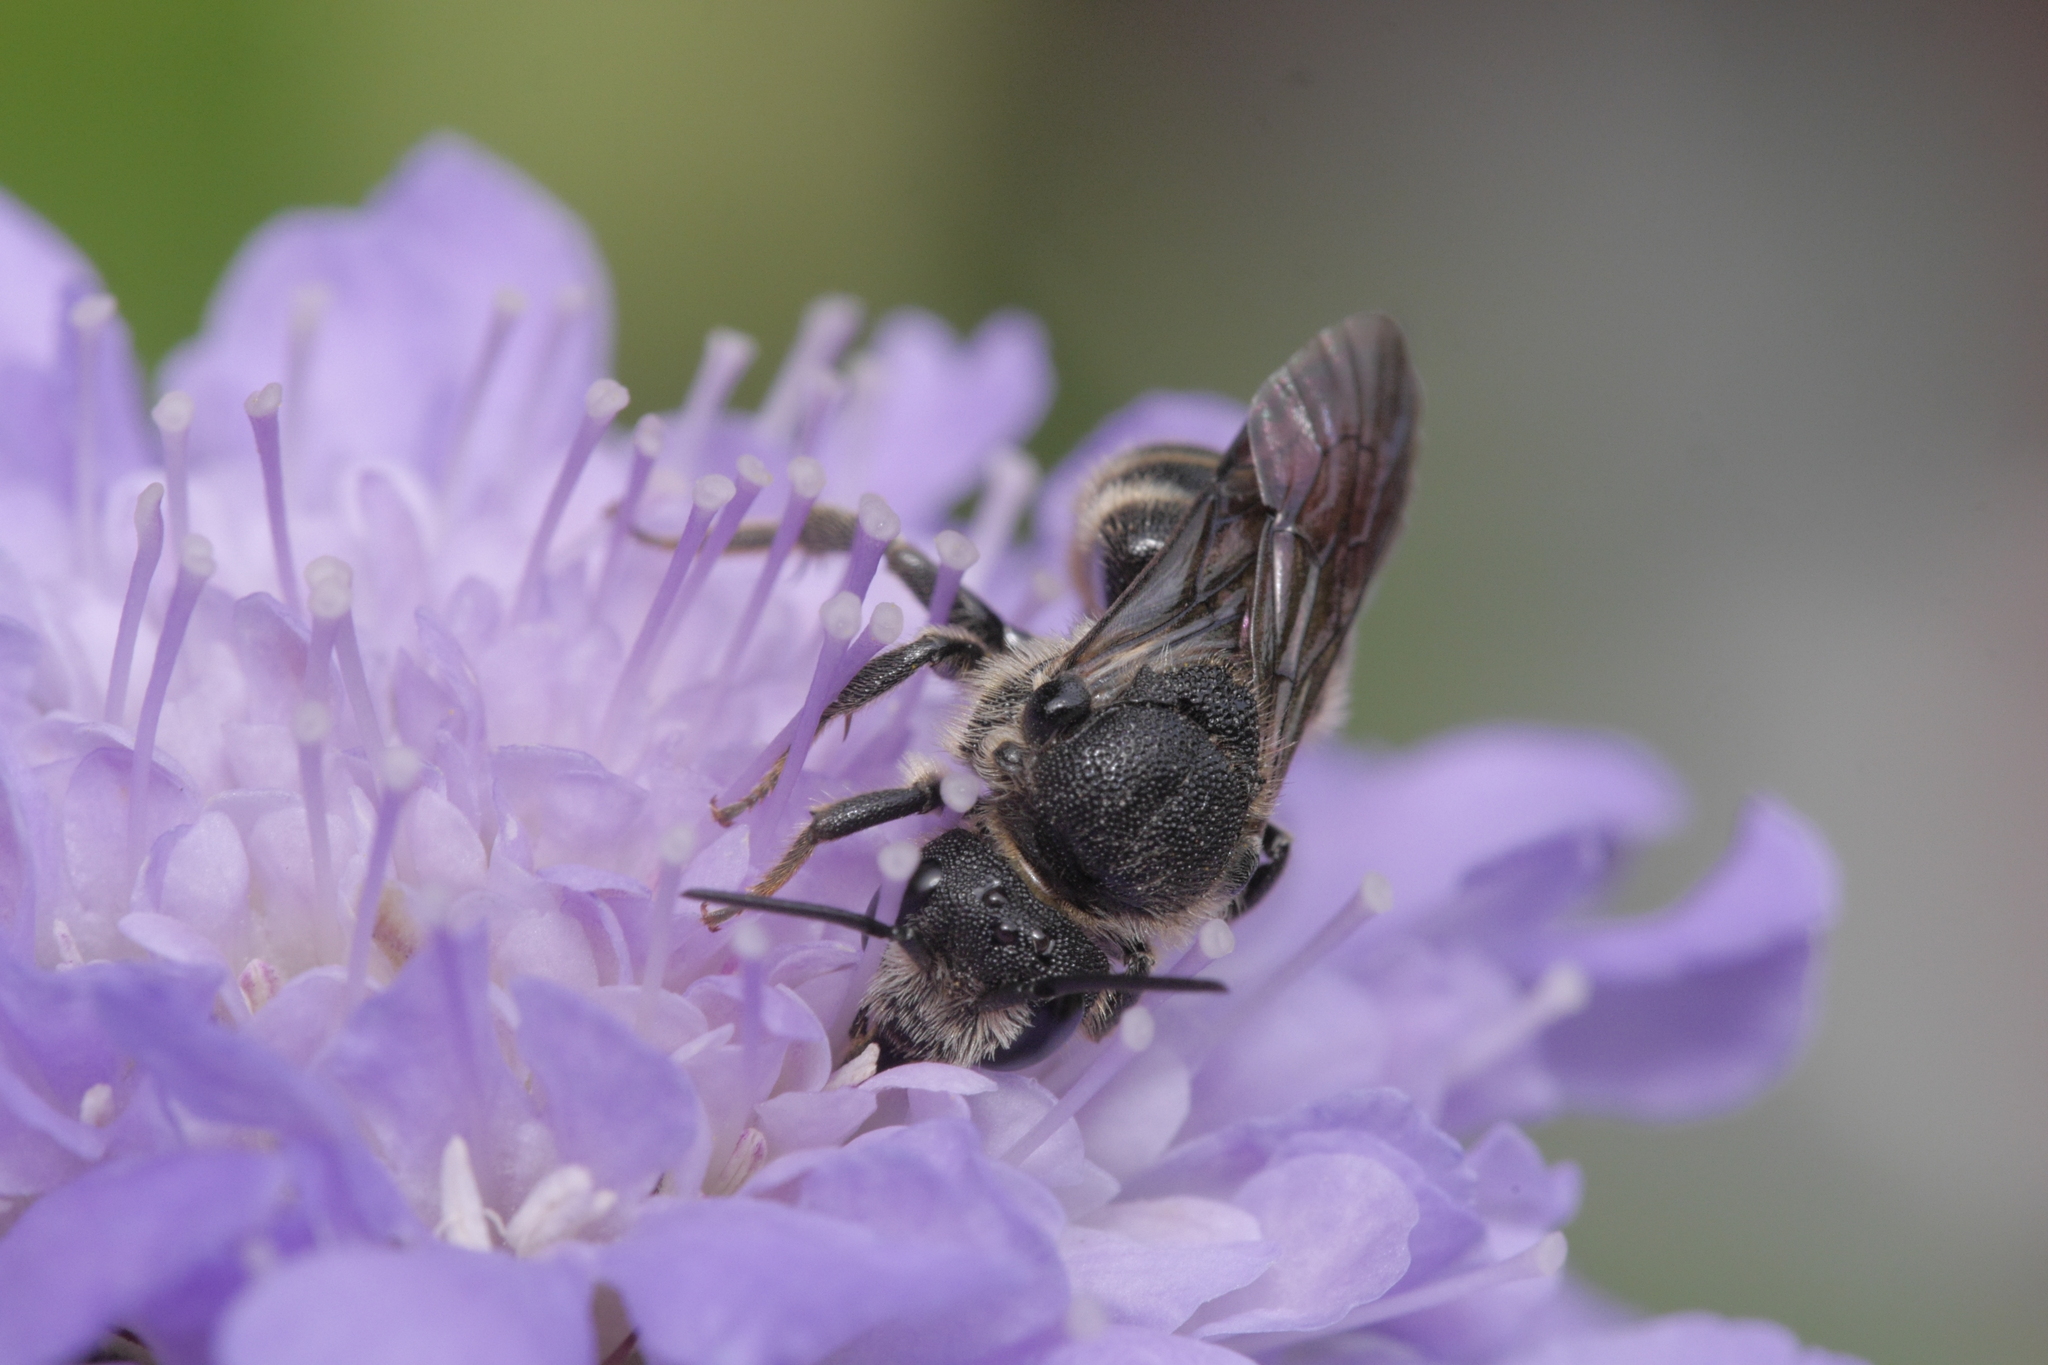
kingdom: Animalia
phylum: Arthropoda
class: Insecta
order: Hymenoptera
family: Megachilidae
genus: Stelis
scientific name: Stelis punctulatissima
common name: Banded dark bee
